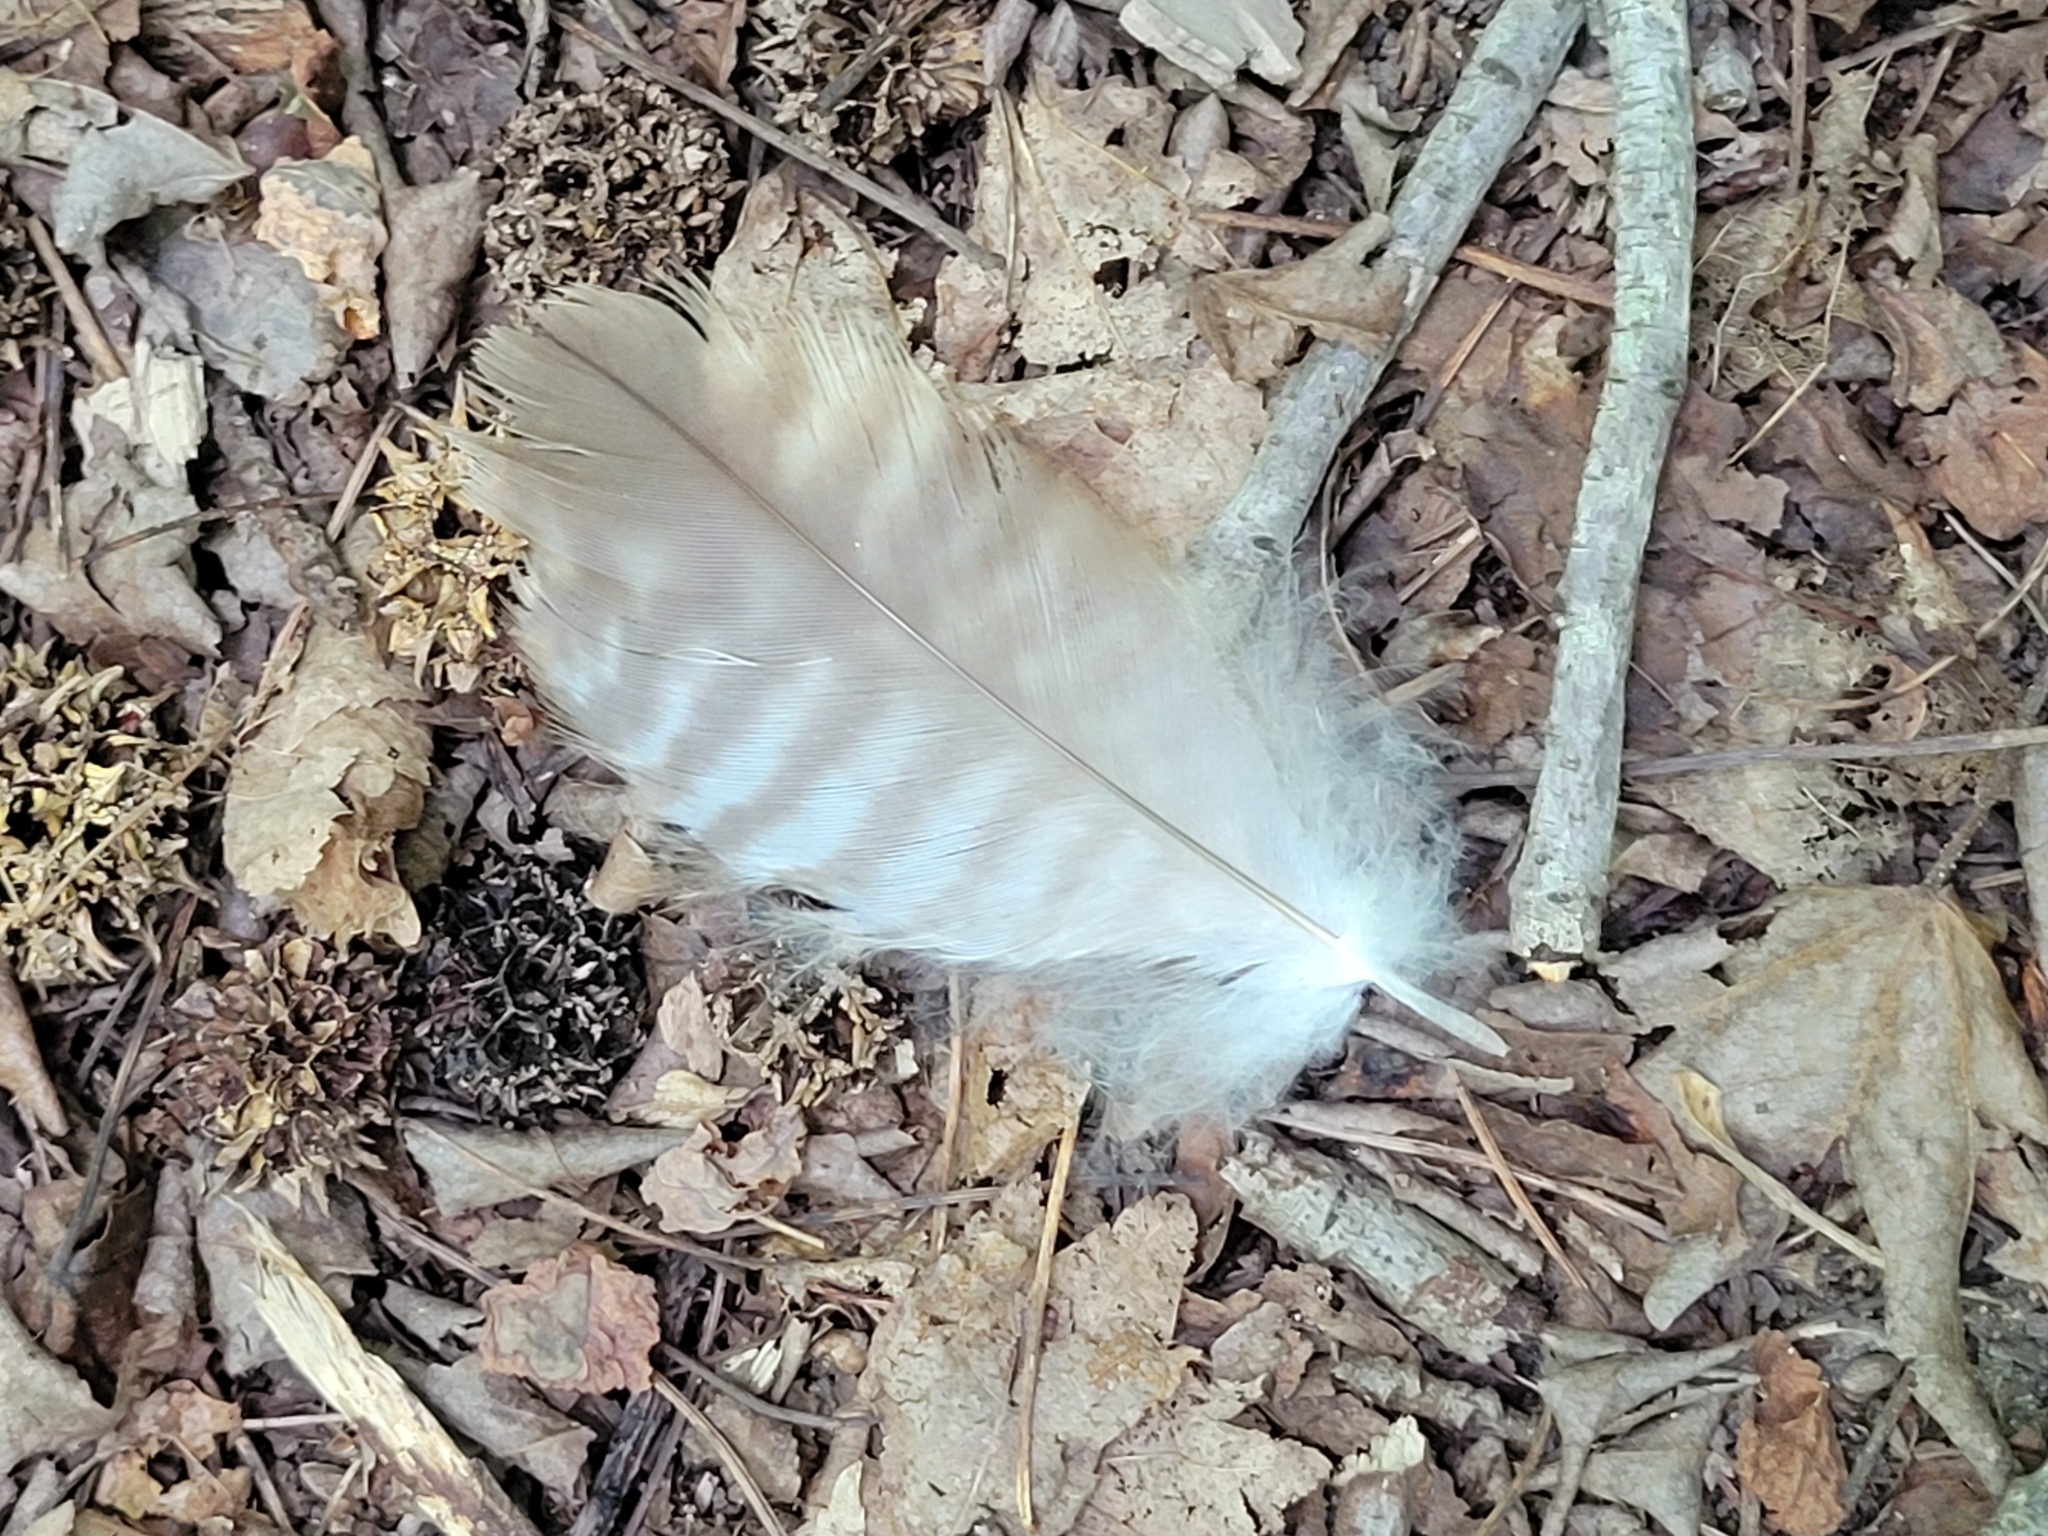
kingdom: Animalia
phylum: Chordata
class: Aves
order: Accipitriformes
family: Accipitridae
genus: Buteo
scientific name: Buteo jamaicensis
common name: Red-tailed hawk
